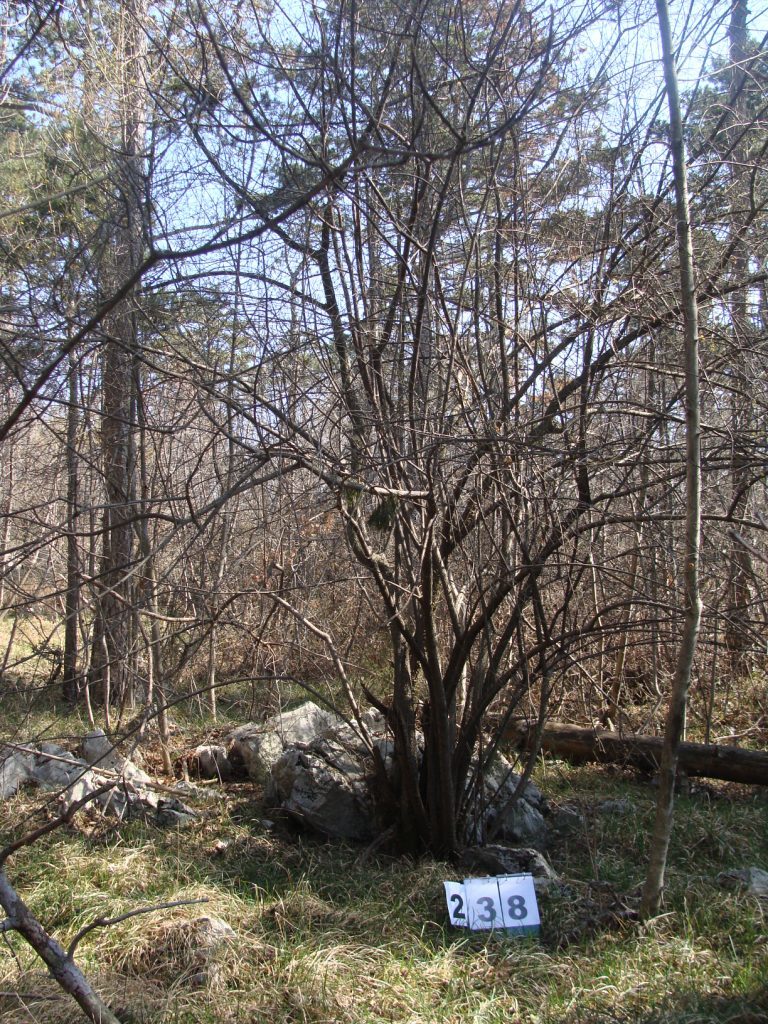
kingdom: Plantae
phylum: Tracheophyta
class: Magnoliopsida
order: Cornales
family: Cornaceae
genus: Cornus
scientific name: Cornus mas
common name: Cornelian-cherry
